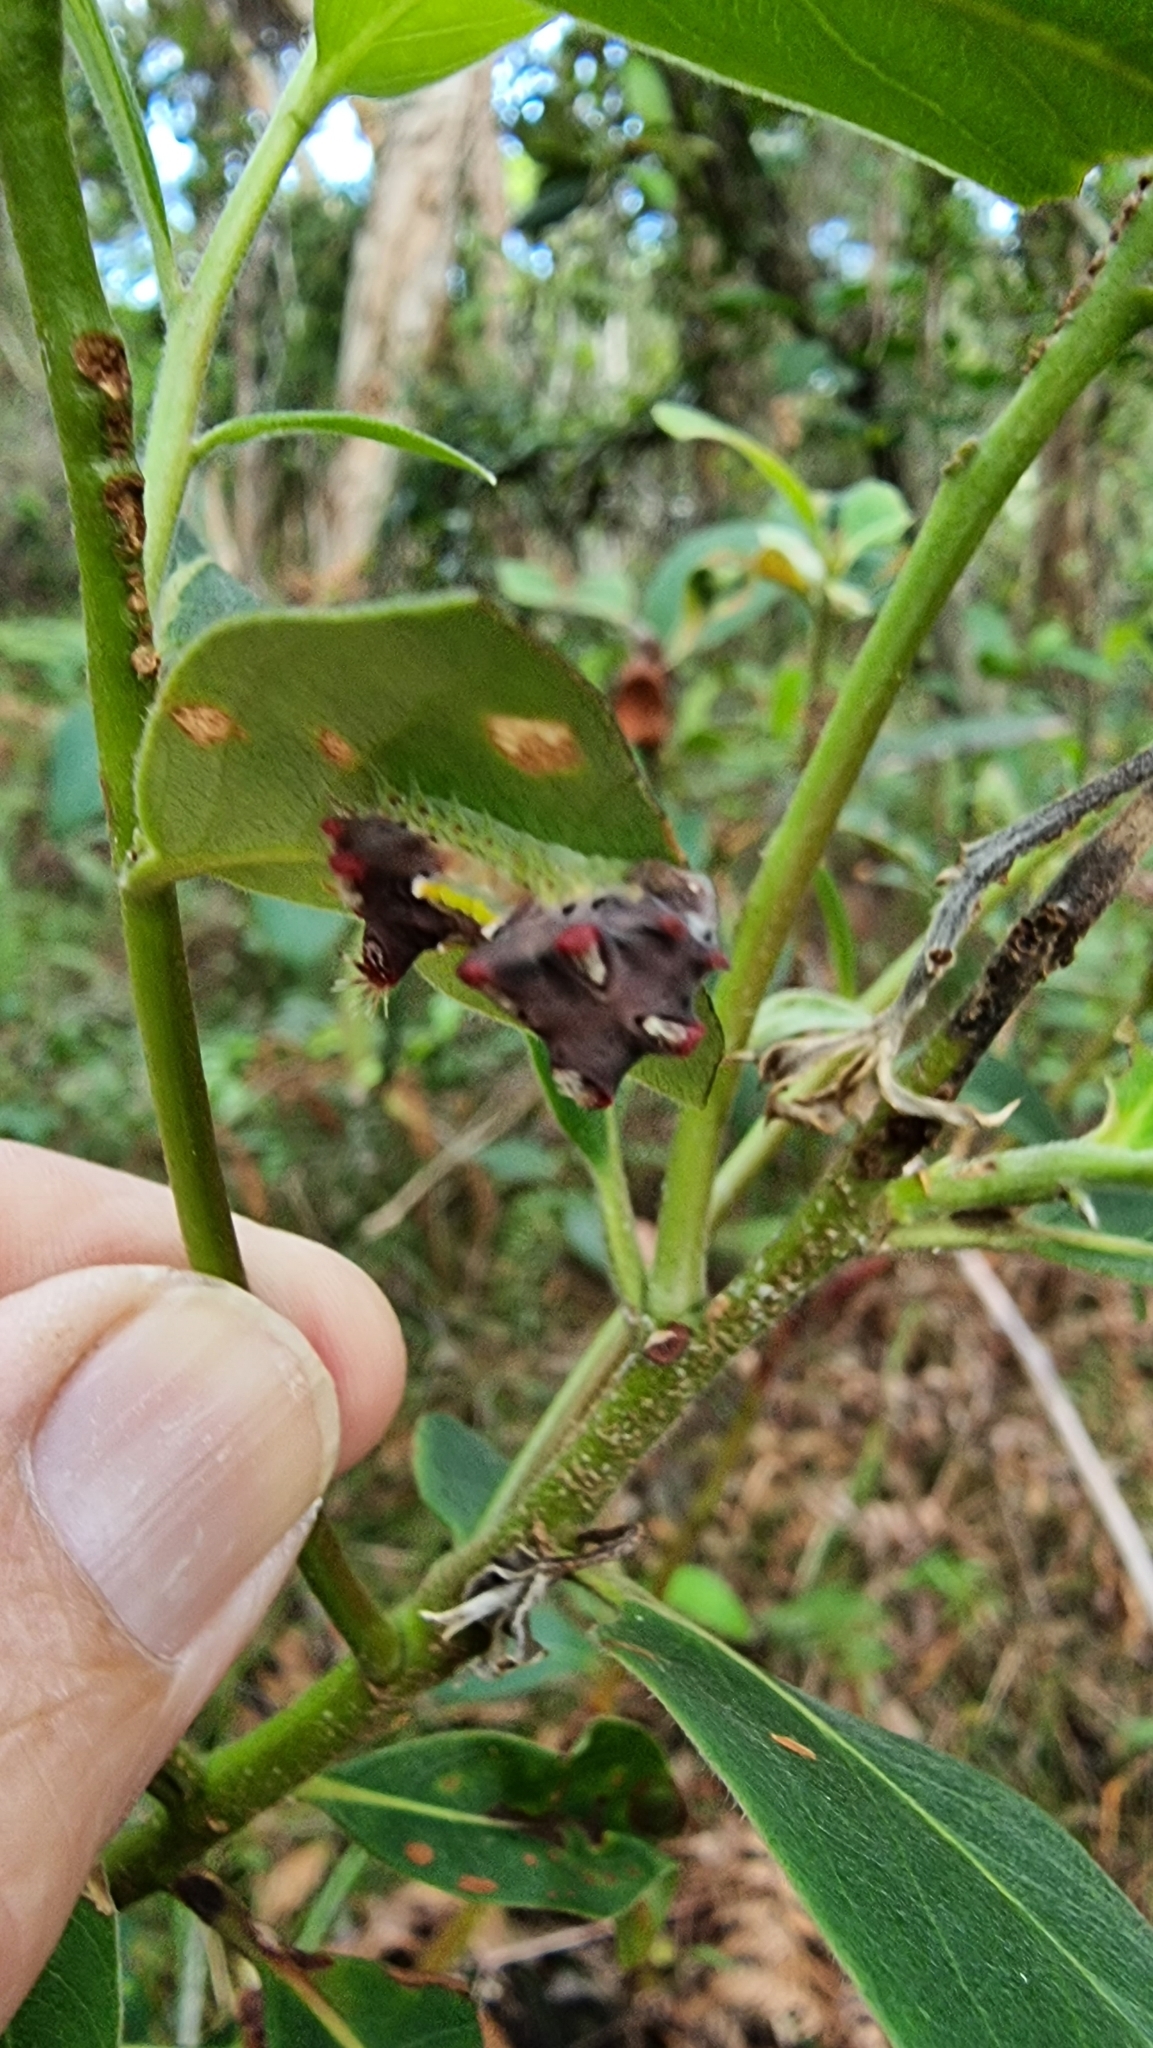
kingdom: Animalia
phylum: Arthropoda
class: Insecta
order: Lepidoptera
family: Limacodidae
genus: Doratifera
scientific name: Doratifera vulnerans
